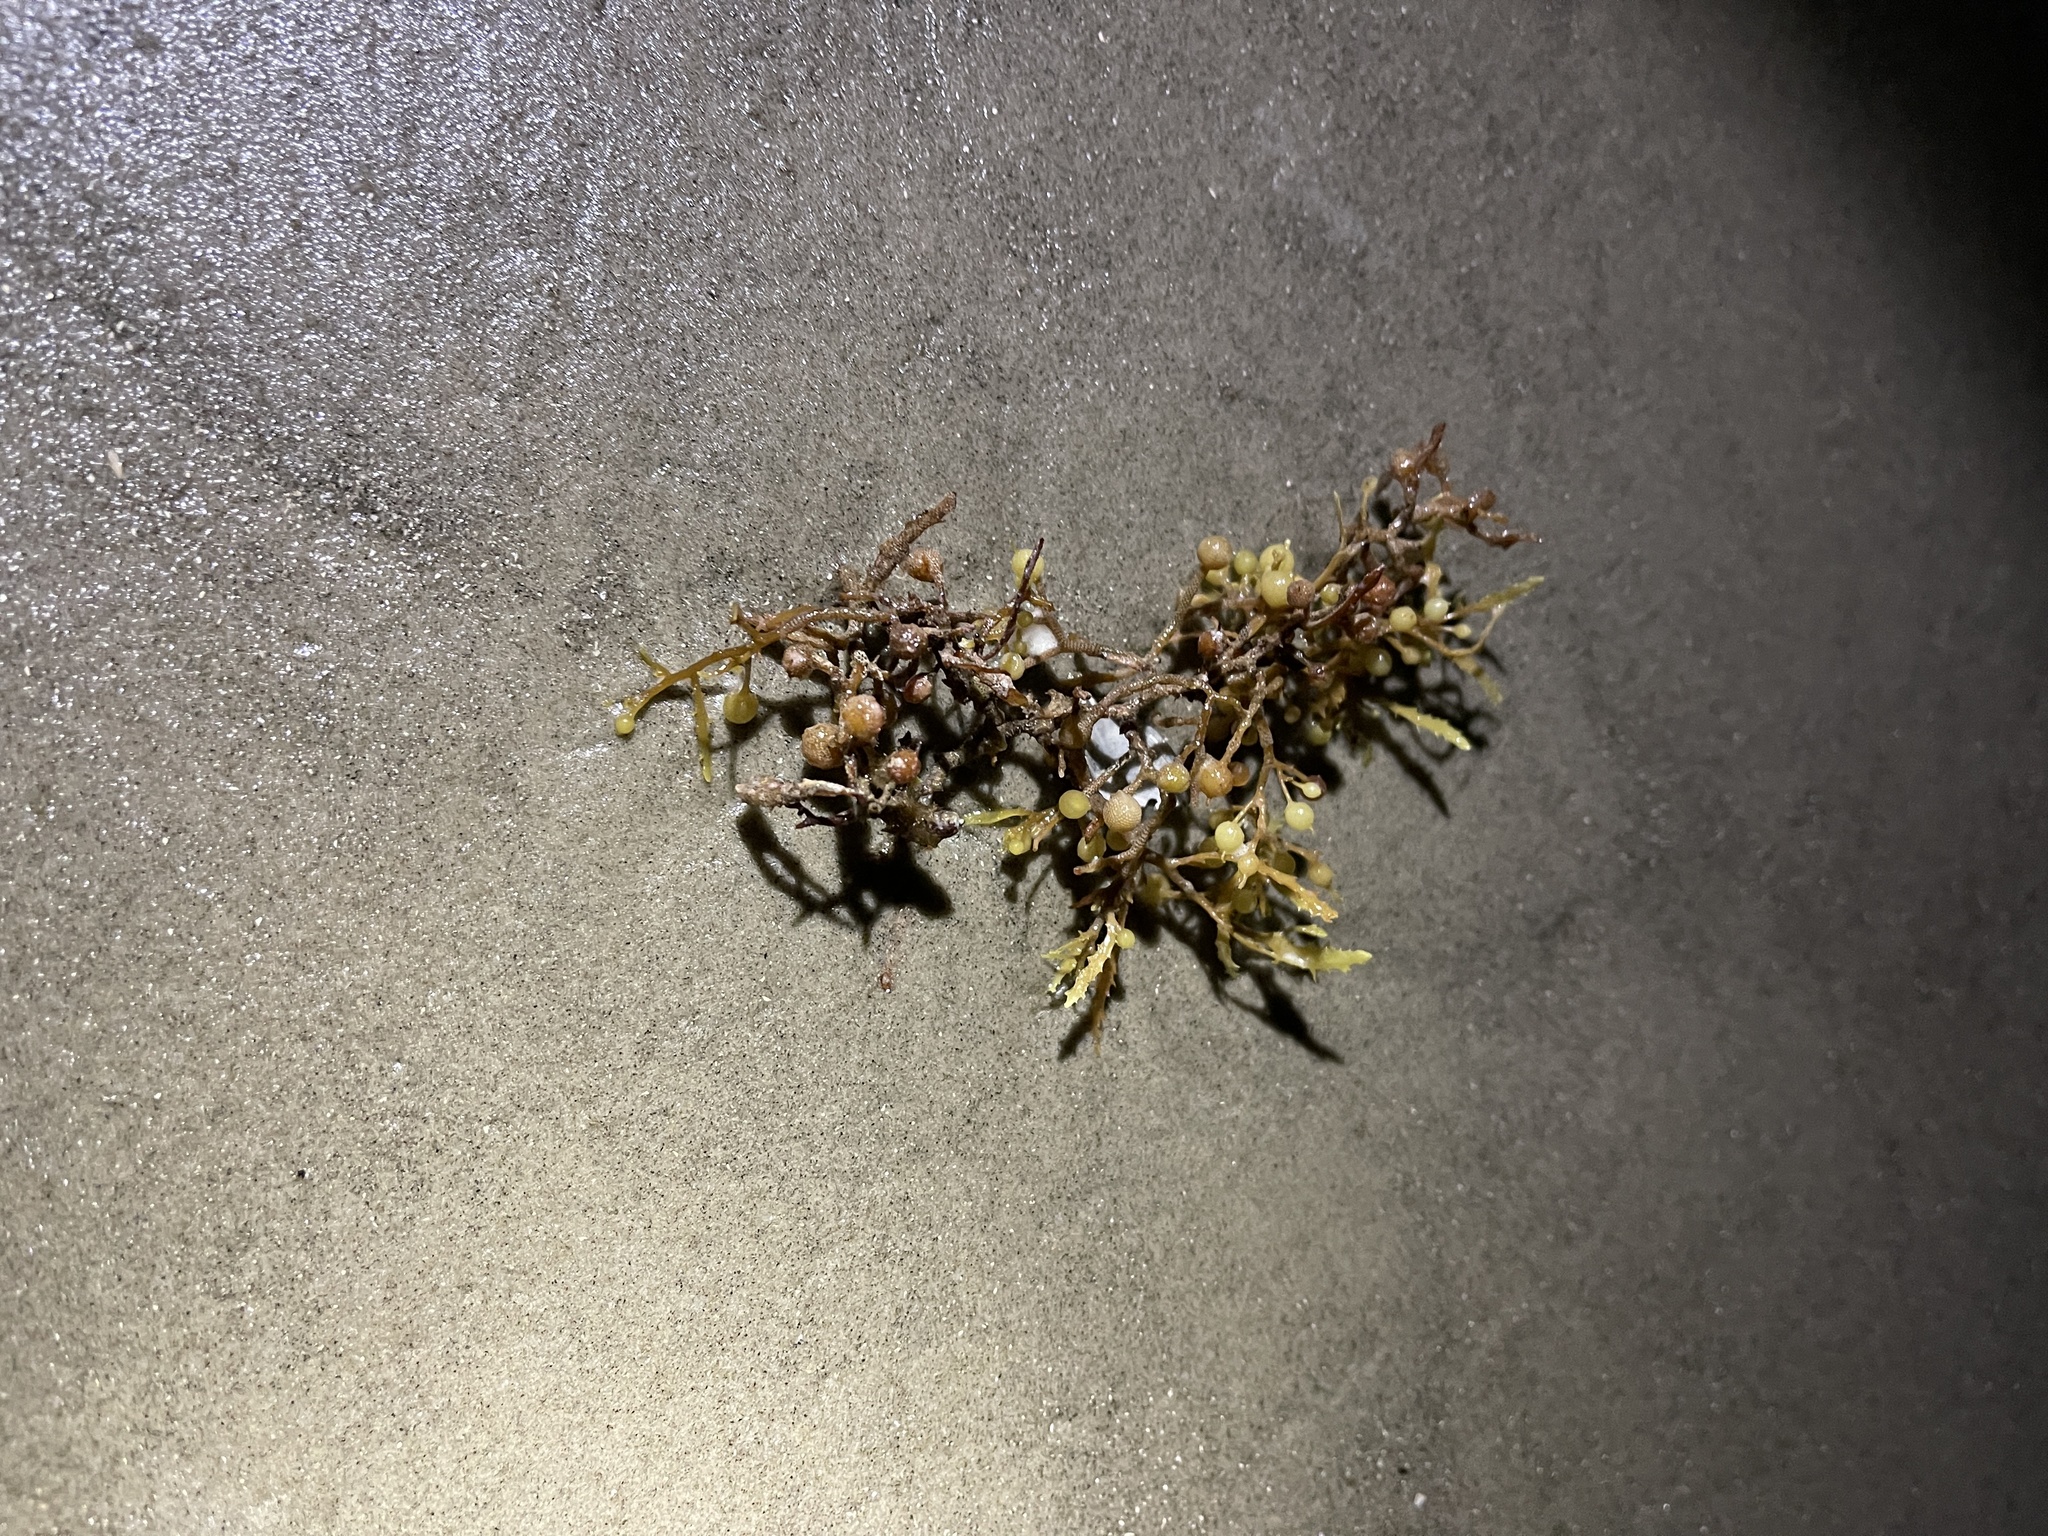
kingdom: Chromista
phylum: Ochrophyta
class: Phaeophyceae
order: Fucales
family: Sargassaceae
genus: Sargassum
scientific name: Sargassum fluitans
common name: Sargassum seaweed
